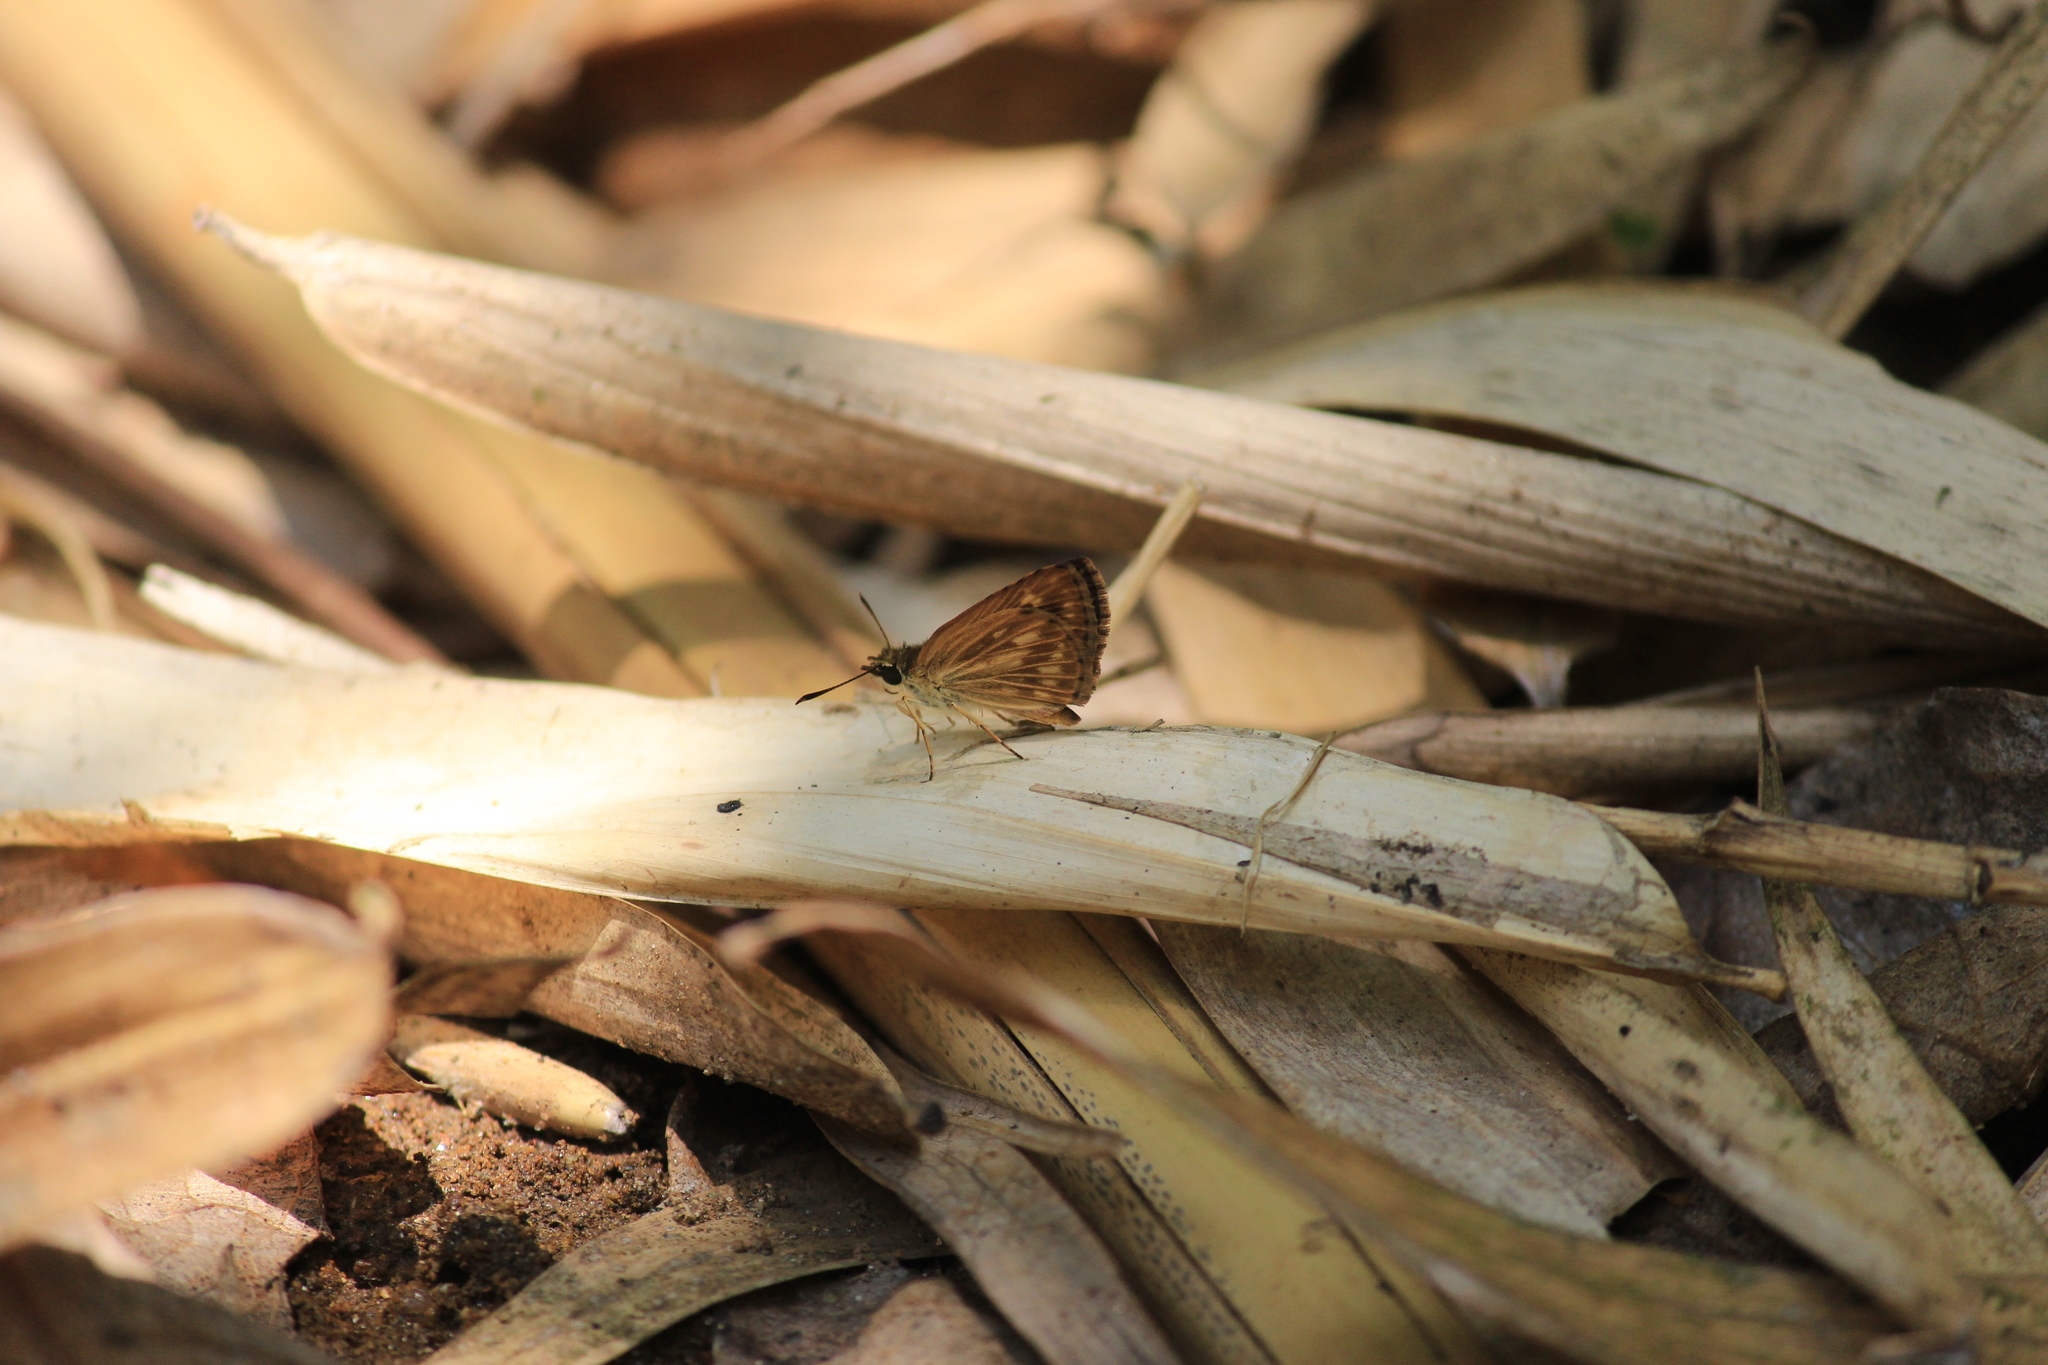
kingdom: Animalia
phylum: Arthropoda
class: Insecta
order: Lepidoptera
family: Hesperiidae
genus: Baracus
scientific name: Baracus vittatus
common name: Hedge-hopper
